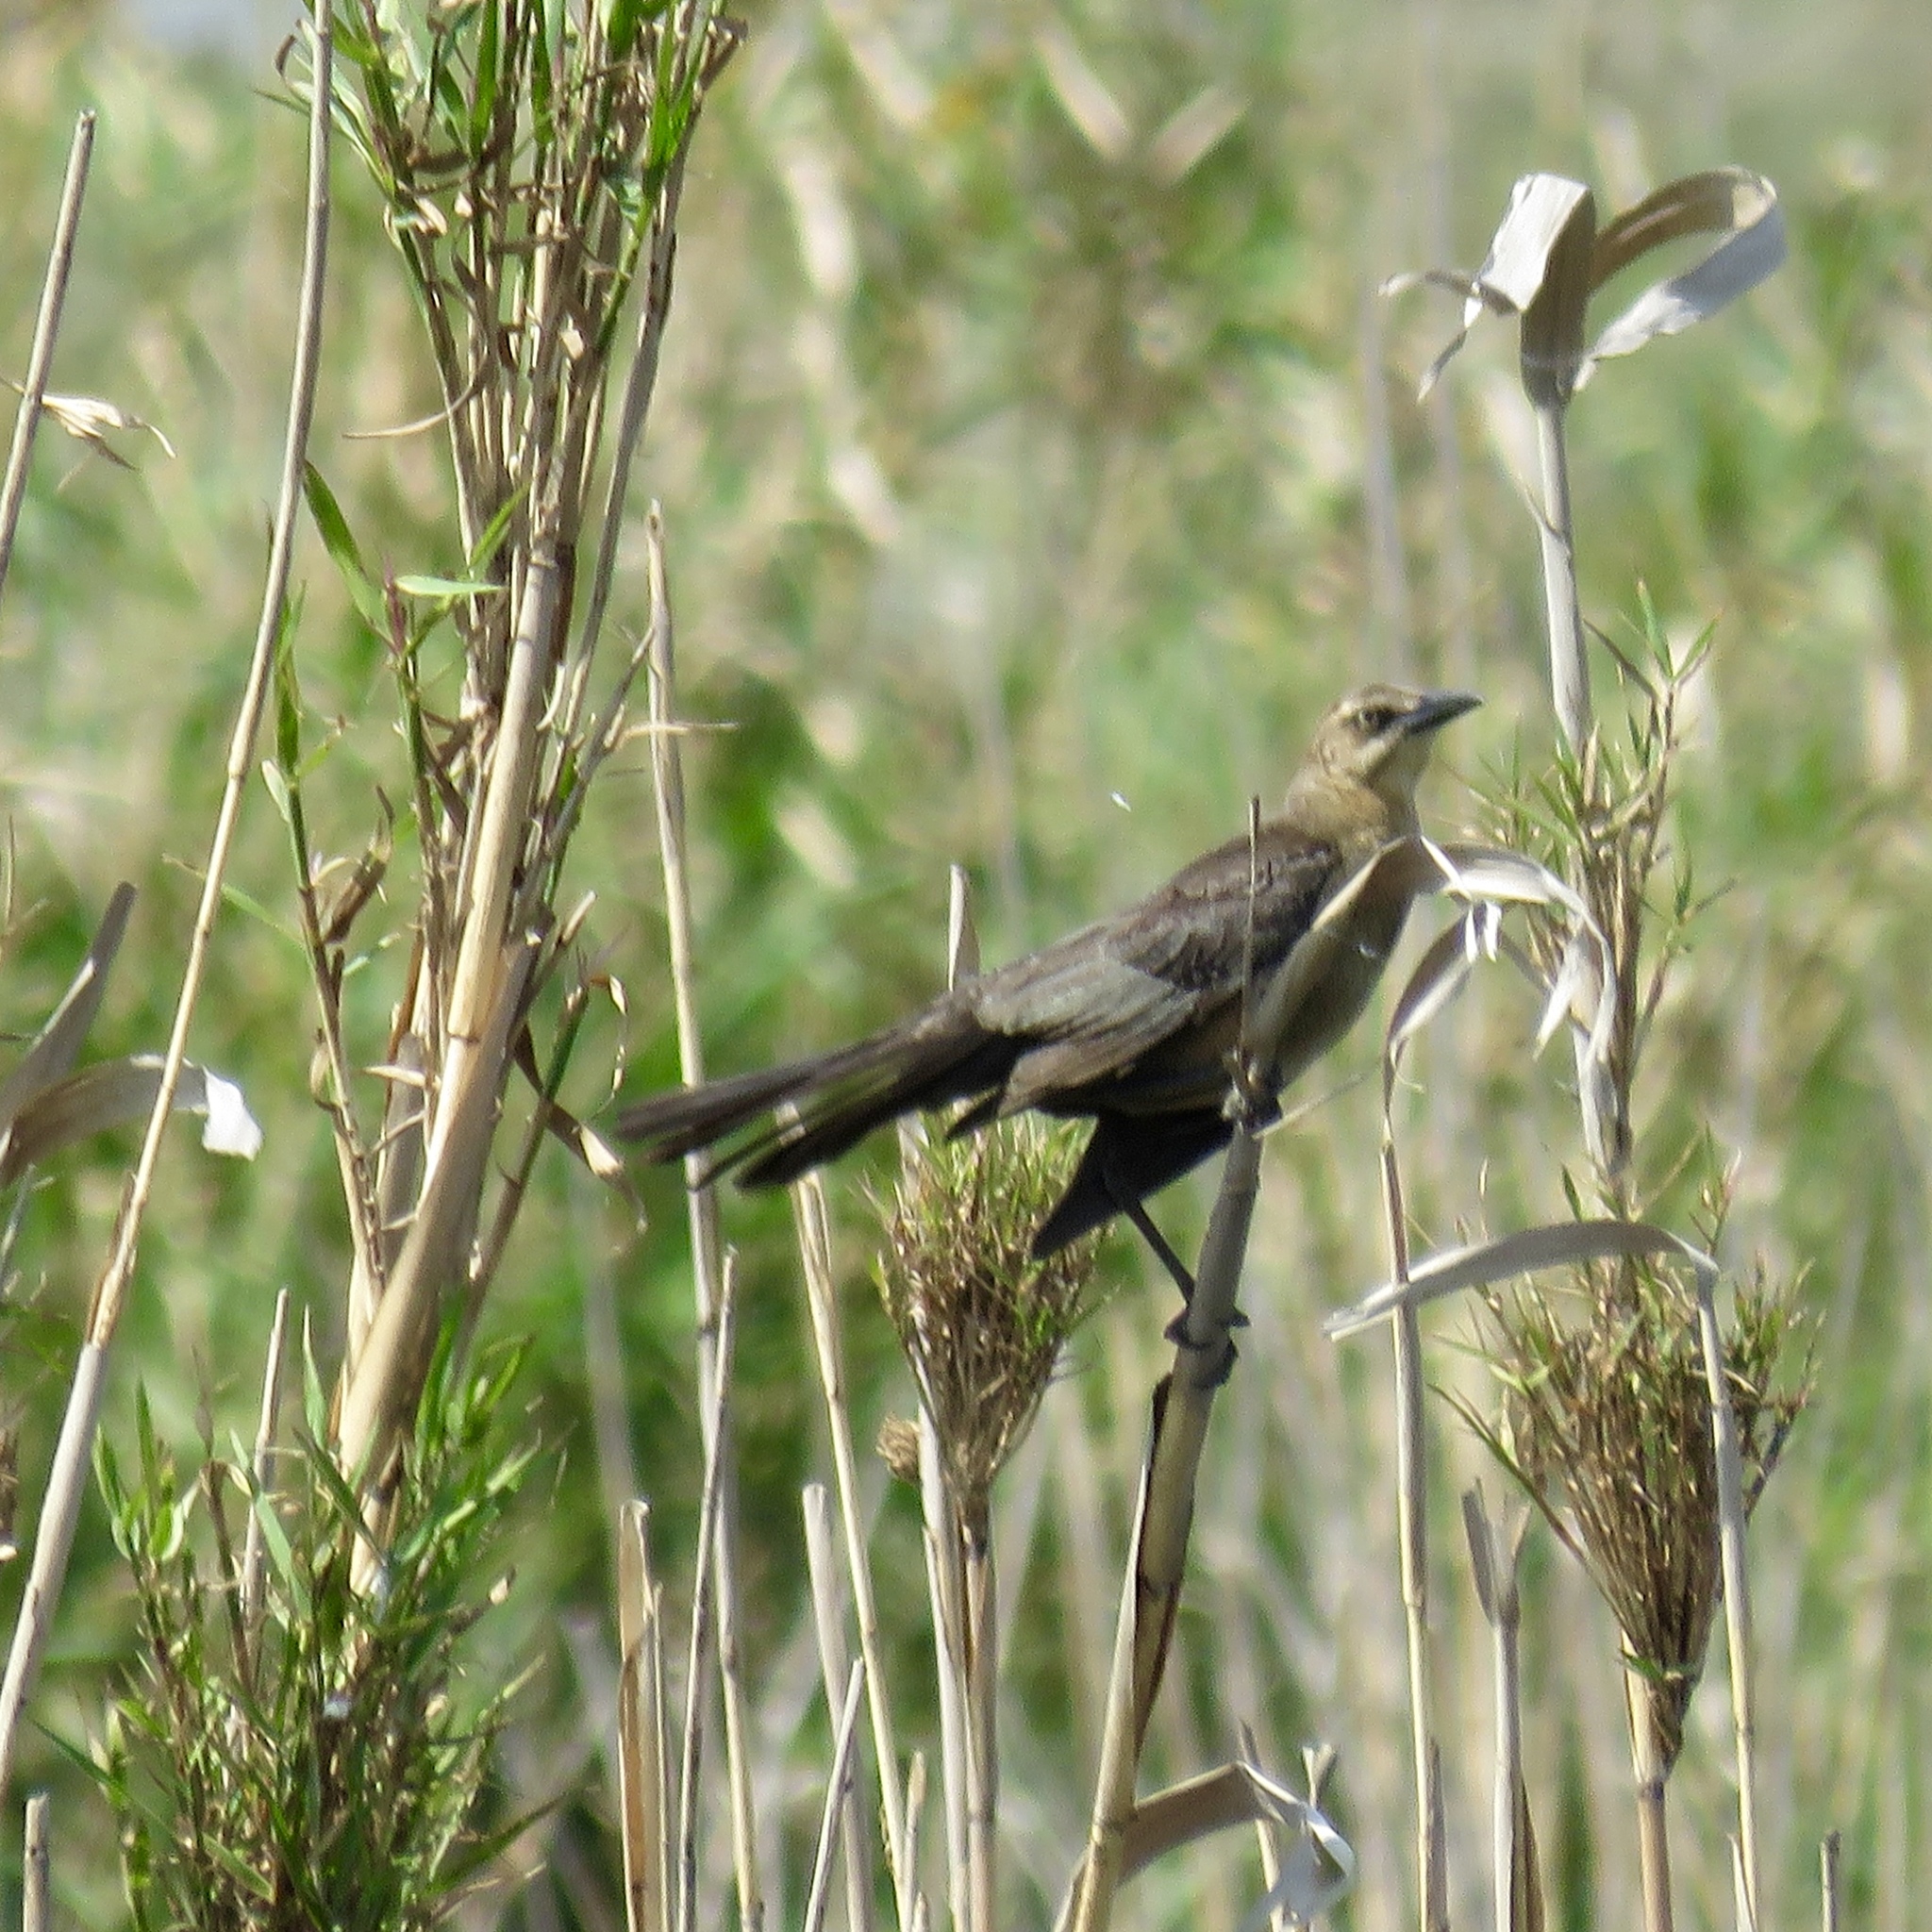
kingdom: Animalia
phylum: Chordata
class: Aves
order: Passeriformes
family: Icteridae
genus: Quiscalus
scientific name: Quiscalus mexicanus
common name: Great-tailed grackle
